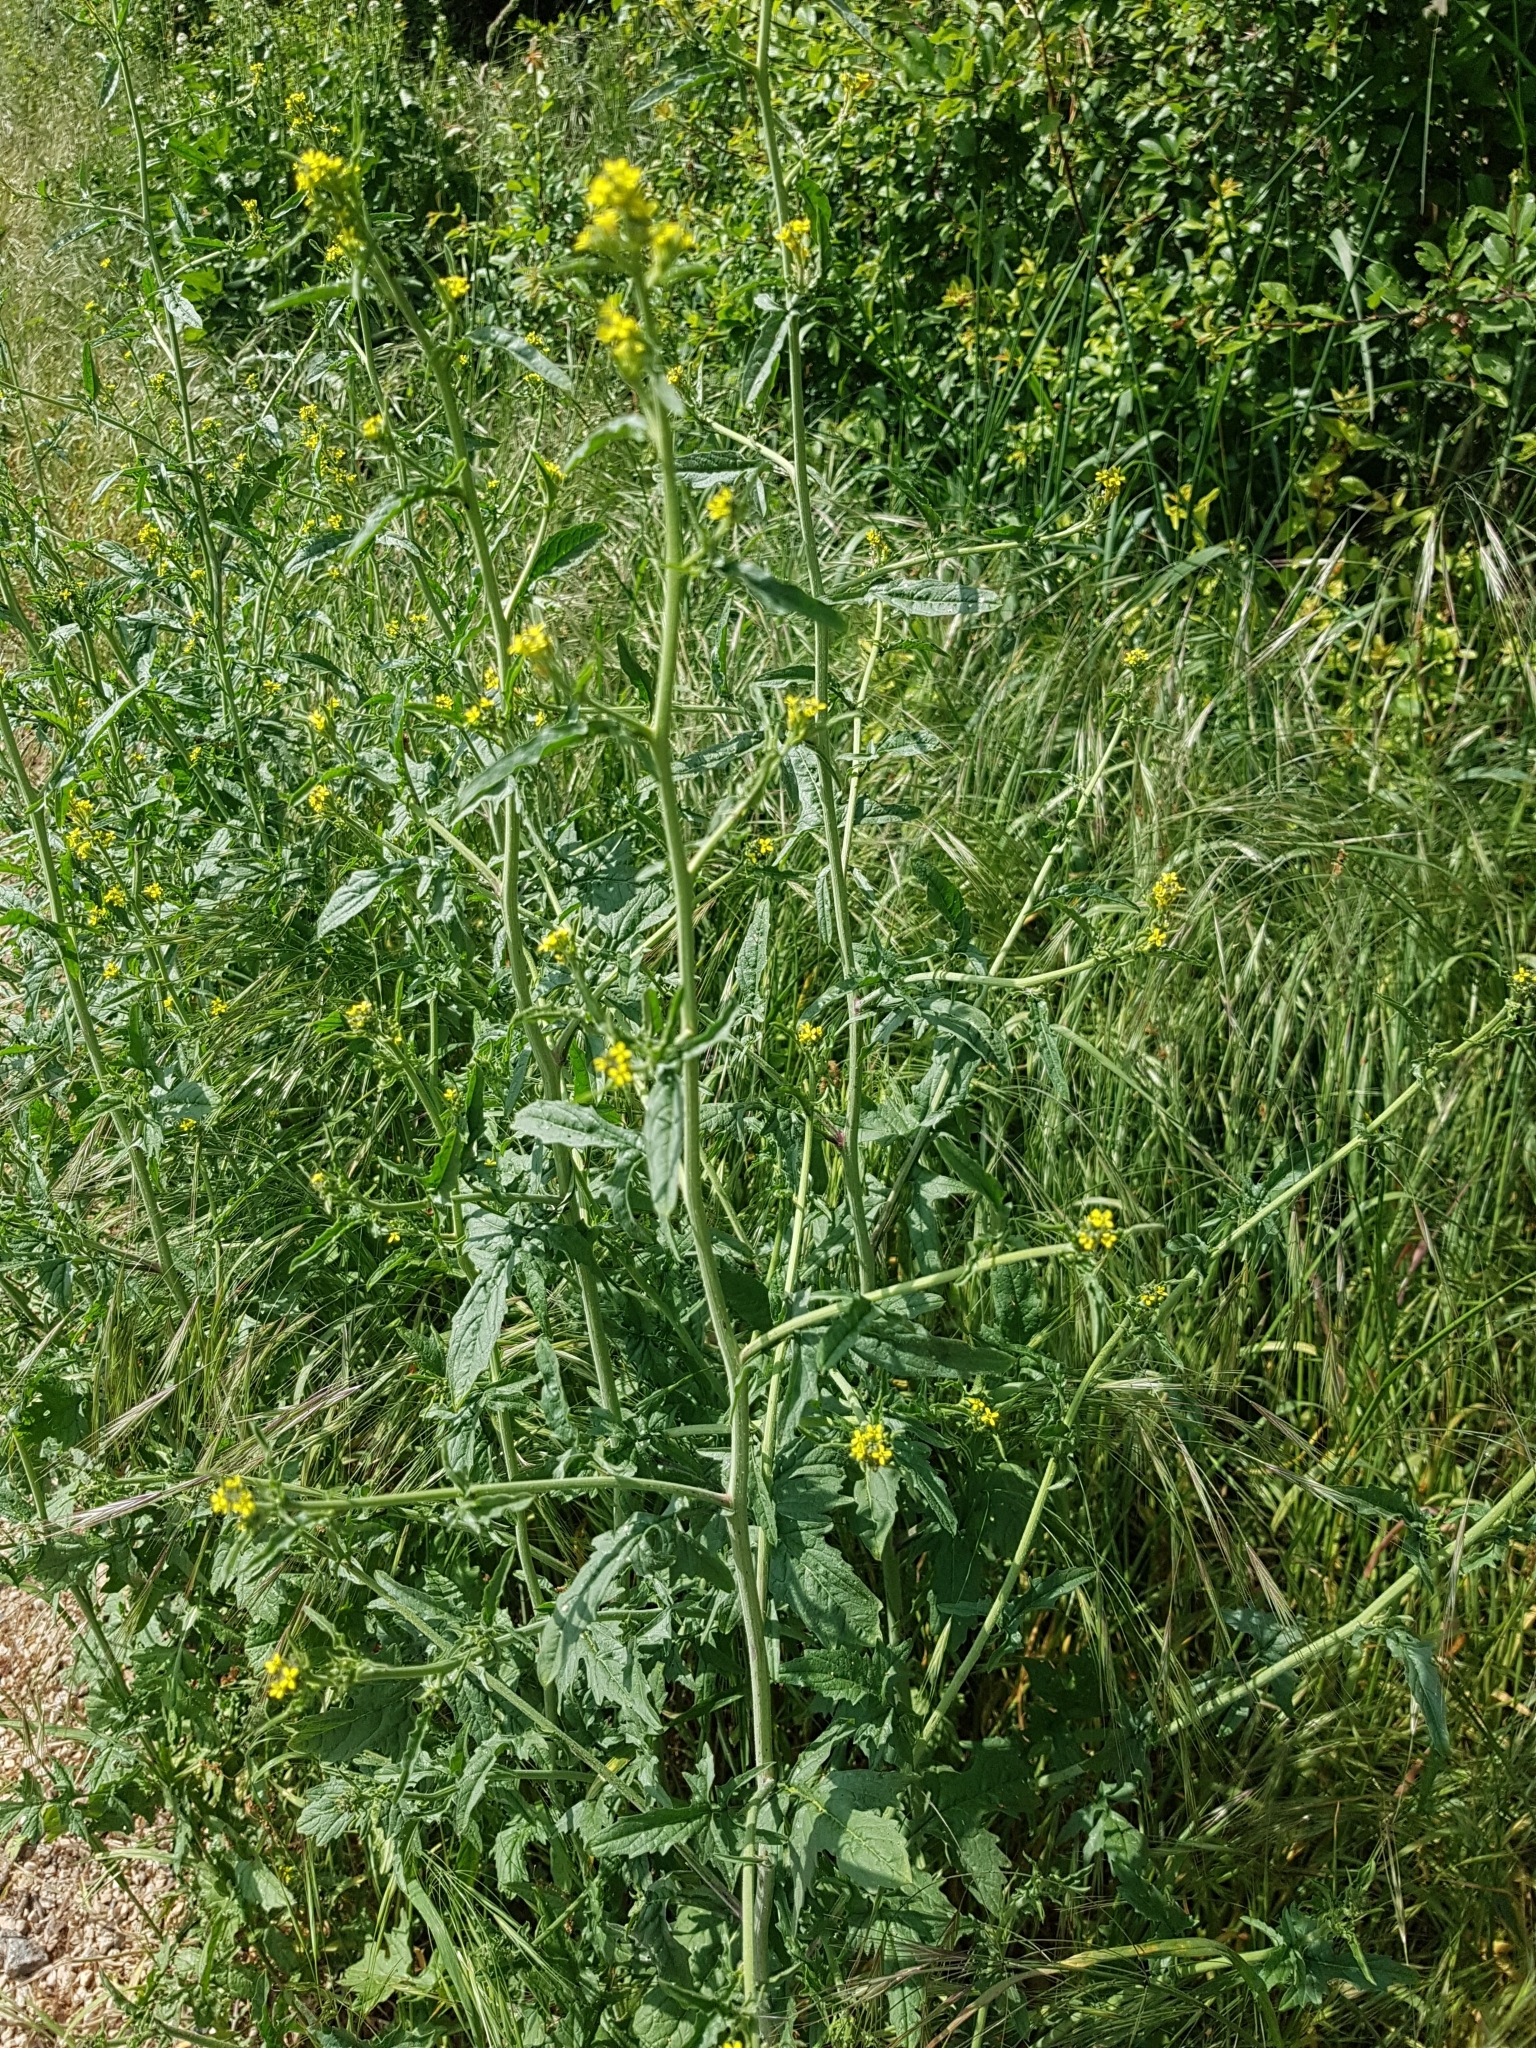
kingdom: Plantae
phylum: Tracheophyta
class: Magnoliopsida
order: Brassicales
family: Brassicaceae
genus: Sisymbrium
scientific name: Sisymbrium officinale
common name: Hedge mustard
